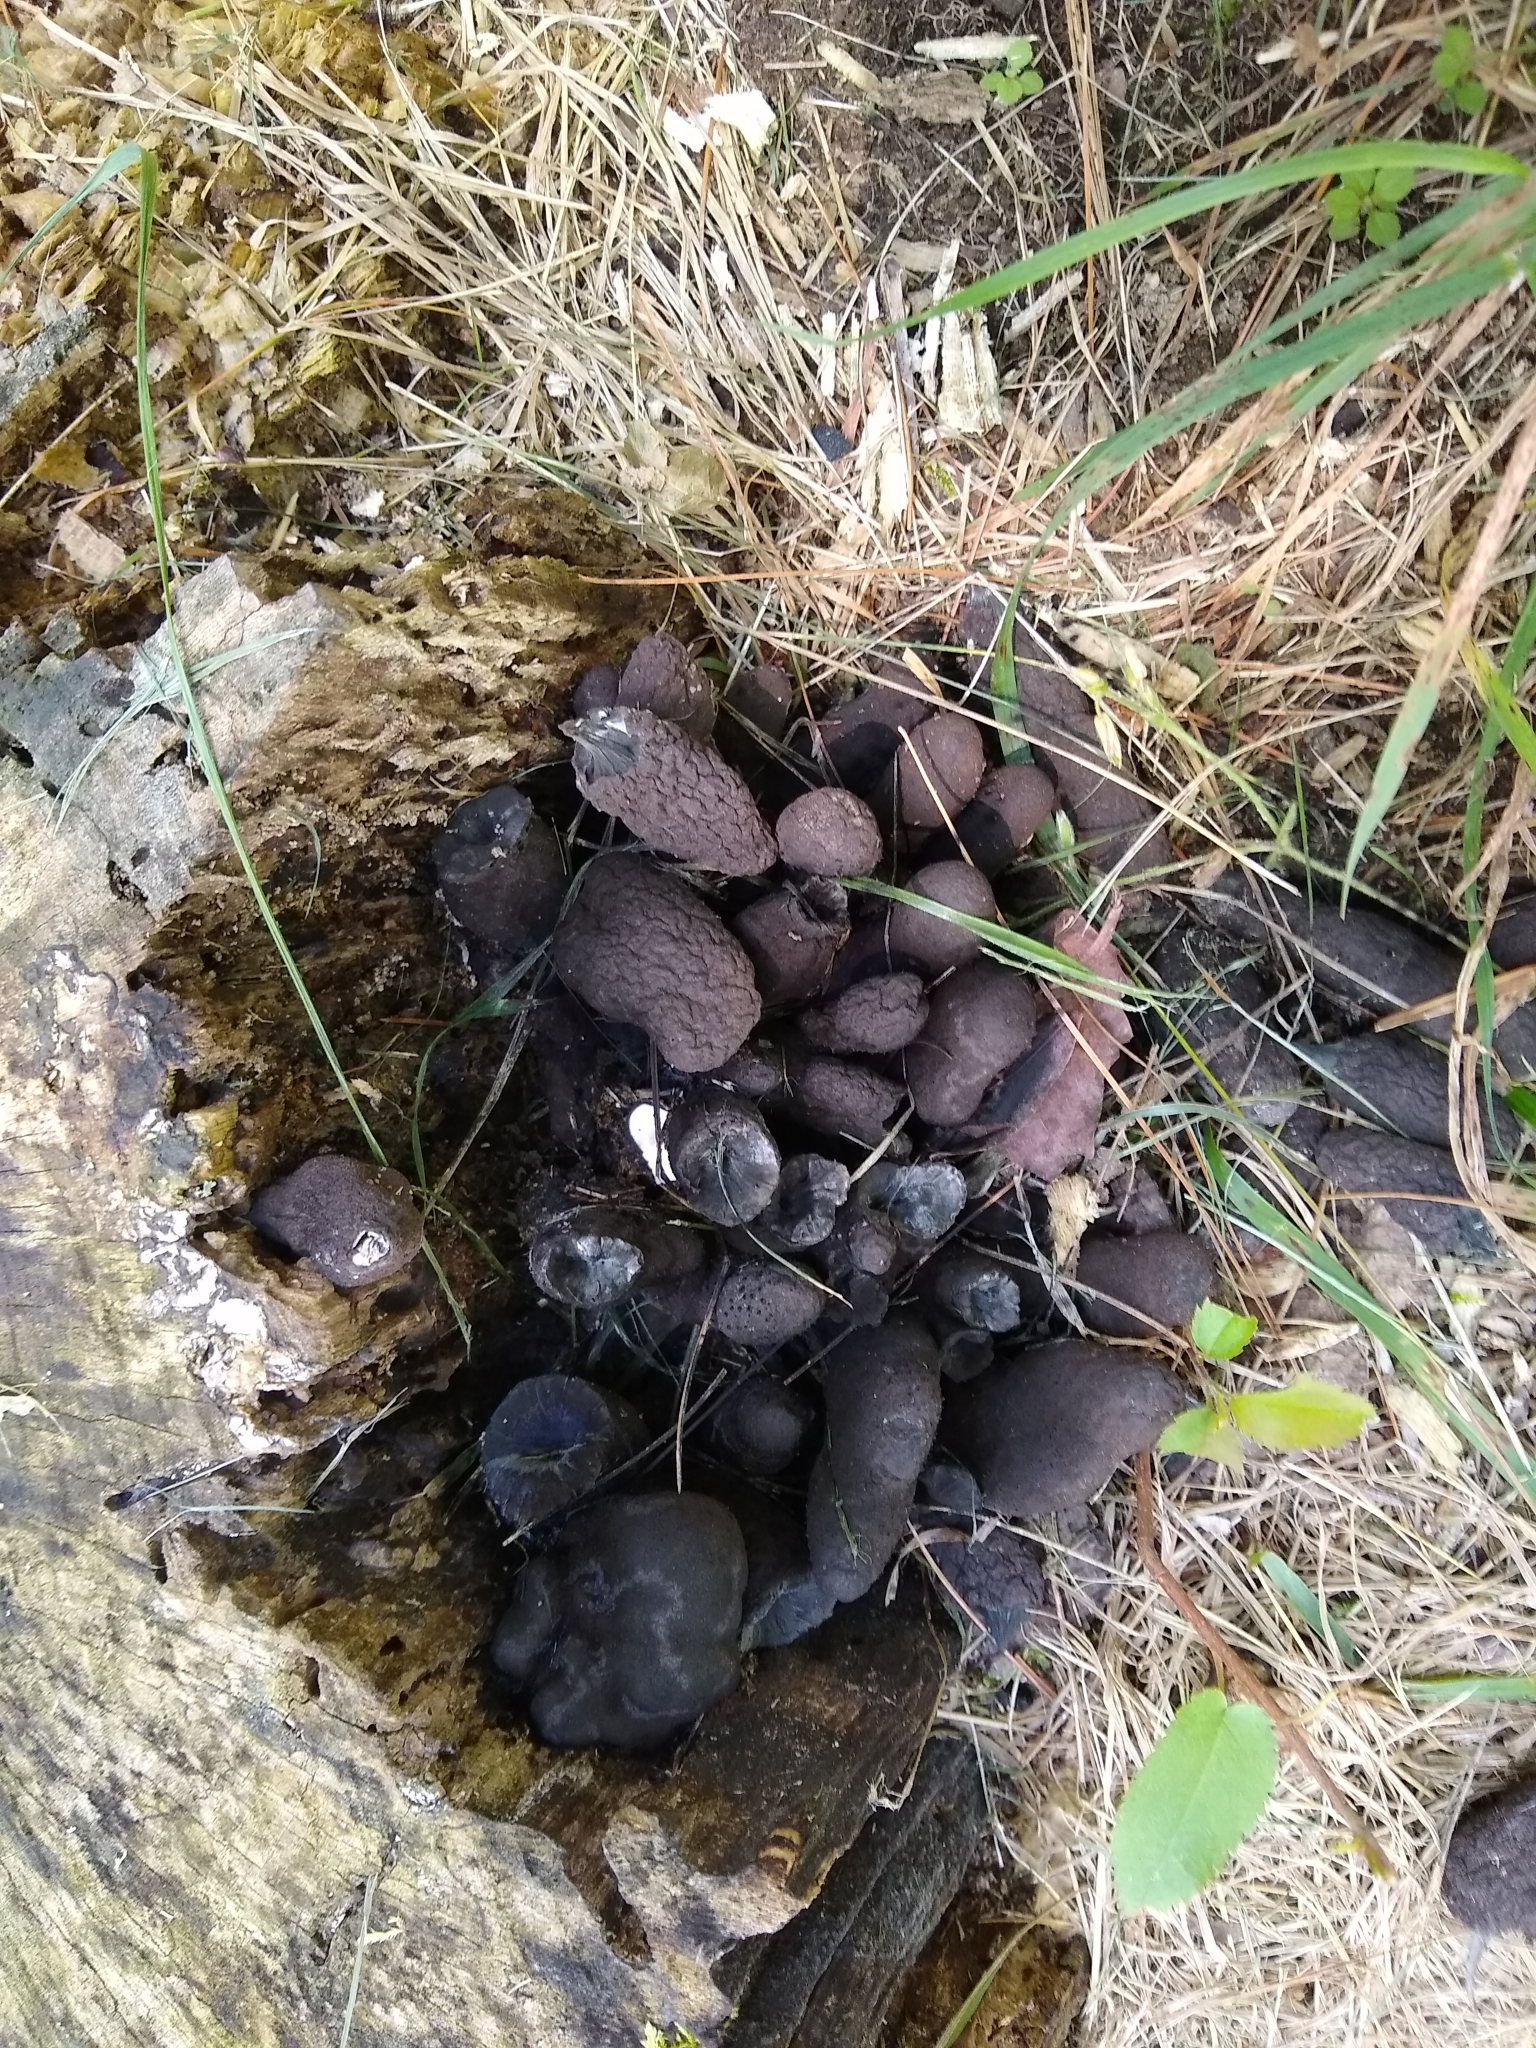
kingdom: Fungi
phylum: Ascomycota
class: Sordariomycetes
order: Xylariales
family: Xylariaceae
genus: Xylaria
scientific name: Xylaria polymorpha
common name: Dead man's fingers
